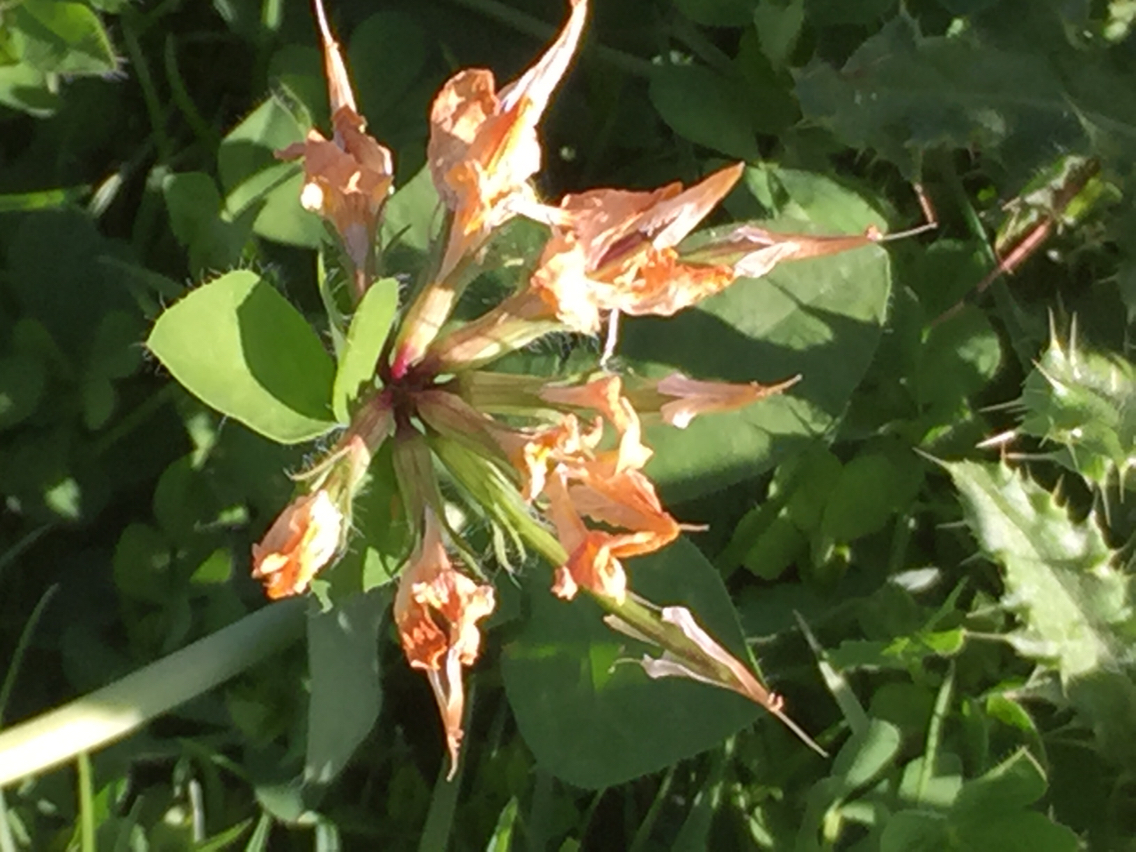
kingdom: Plantae
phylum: Tracheophyta
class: Magnoliopsida
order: Fabales
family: Fabaceae
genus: Lotus
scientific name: Lotus pedunculatus
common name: Greater birdsfoot-trefoil
